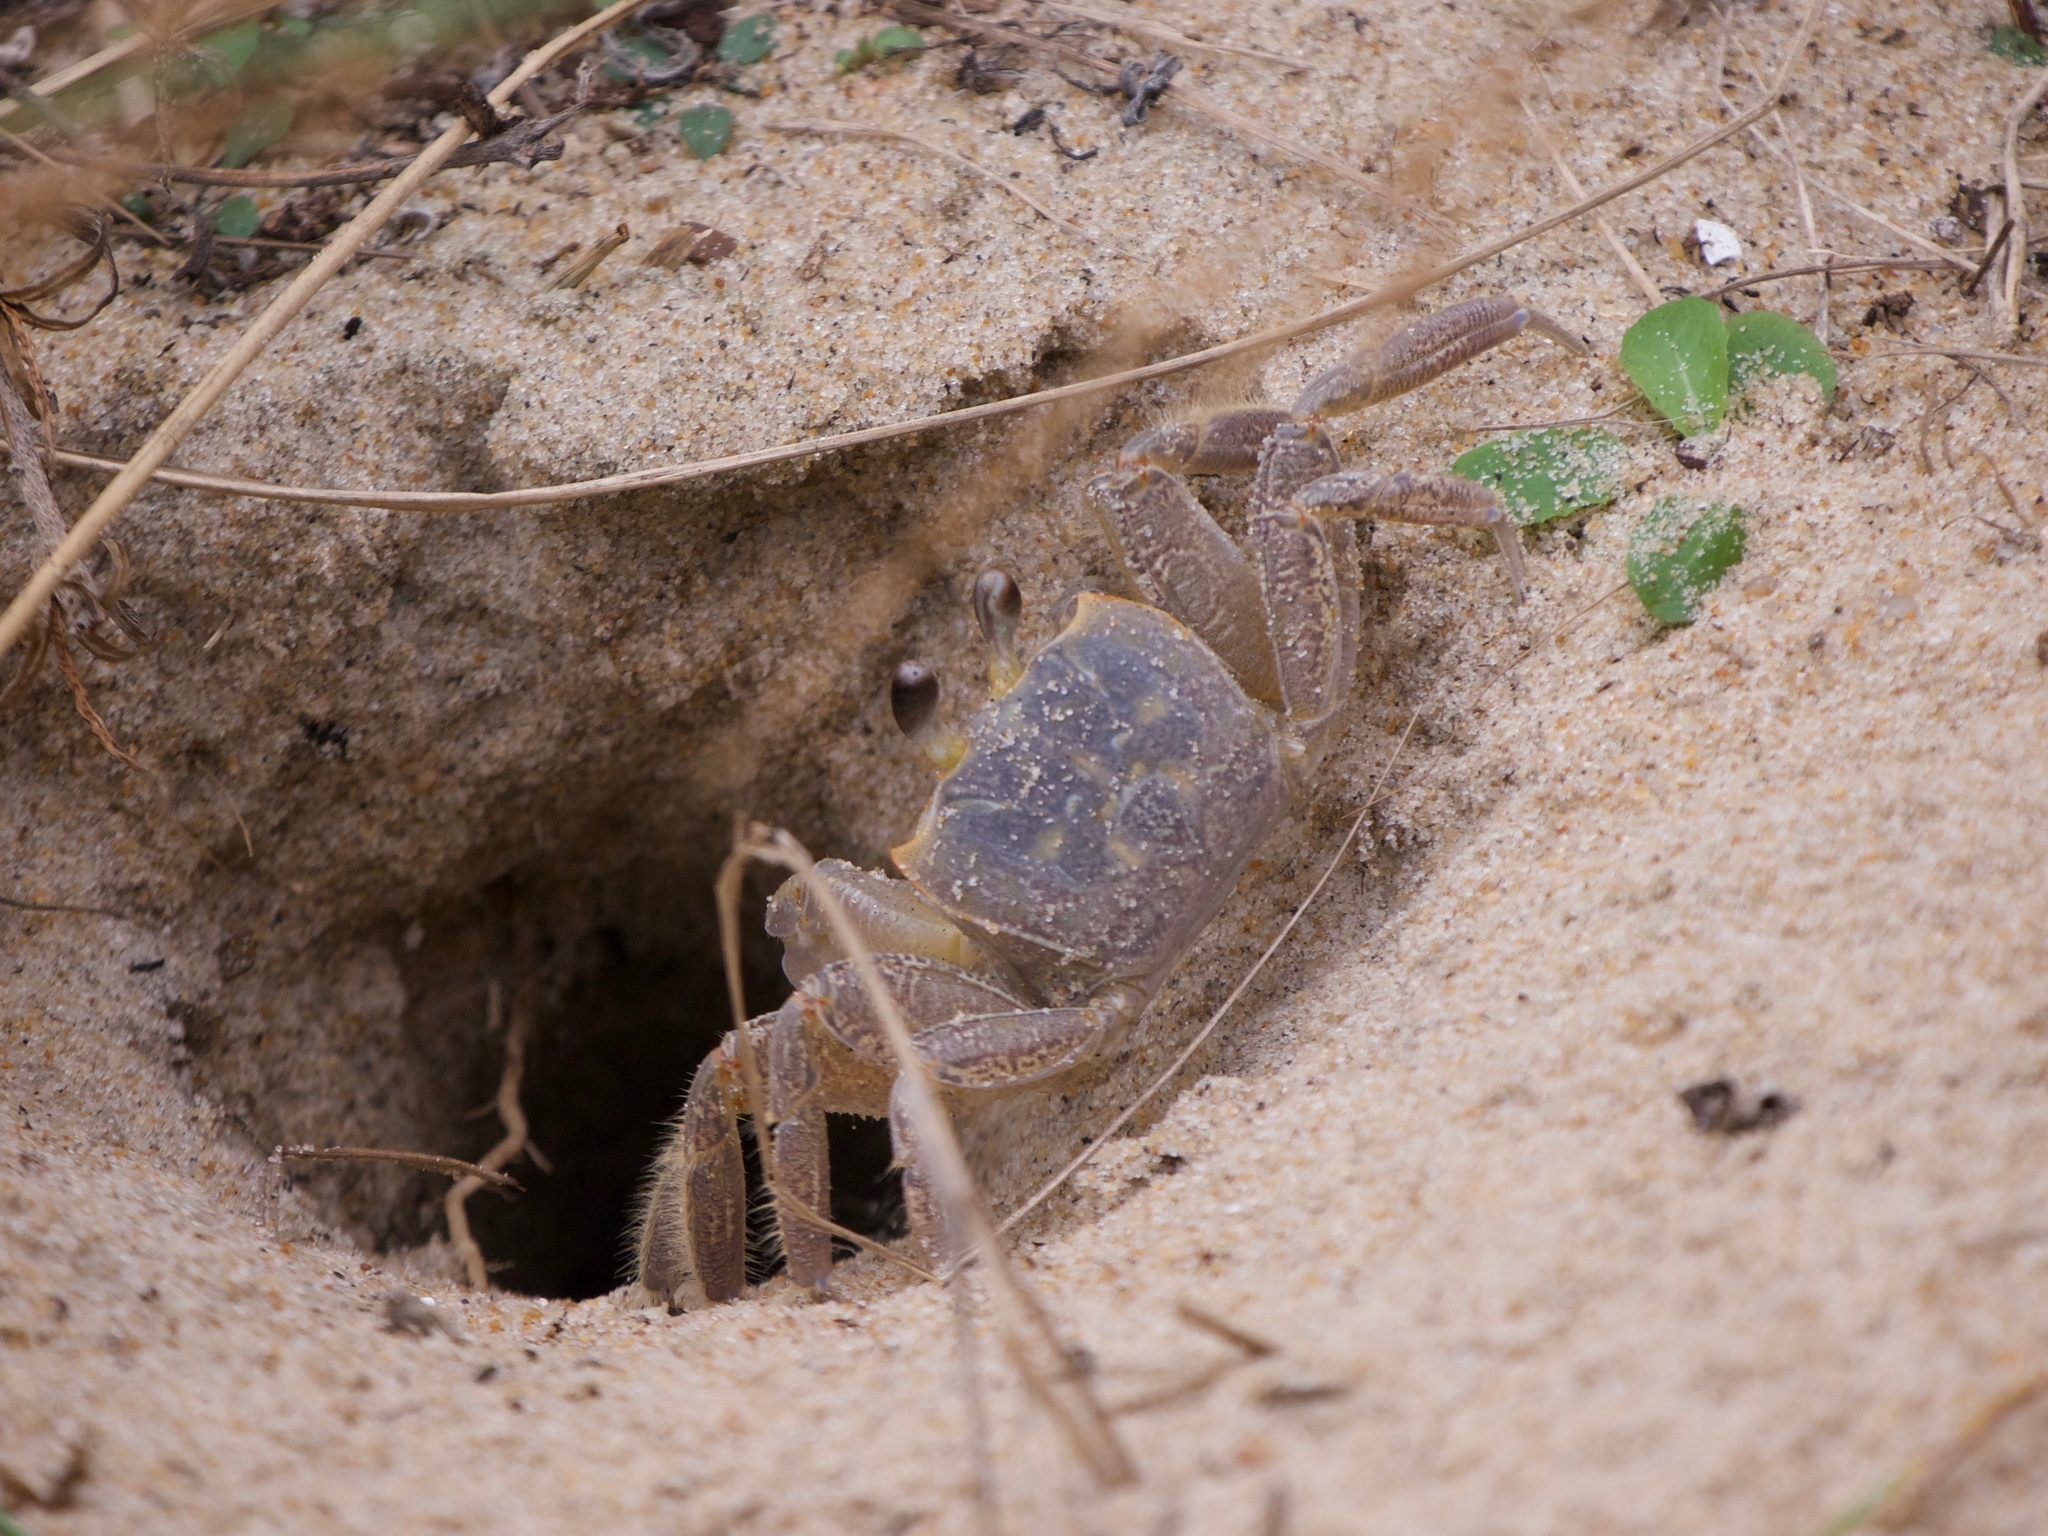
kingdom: Animalia
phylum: Arthropoda
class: Malacostraca
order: Decapoda
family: Ocypodidae
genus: Ocypode
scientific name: Ocypode quadrata
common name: Ghost crab
